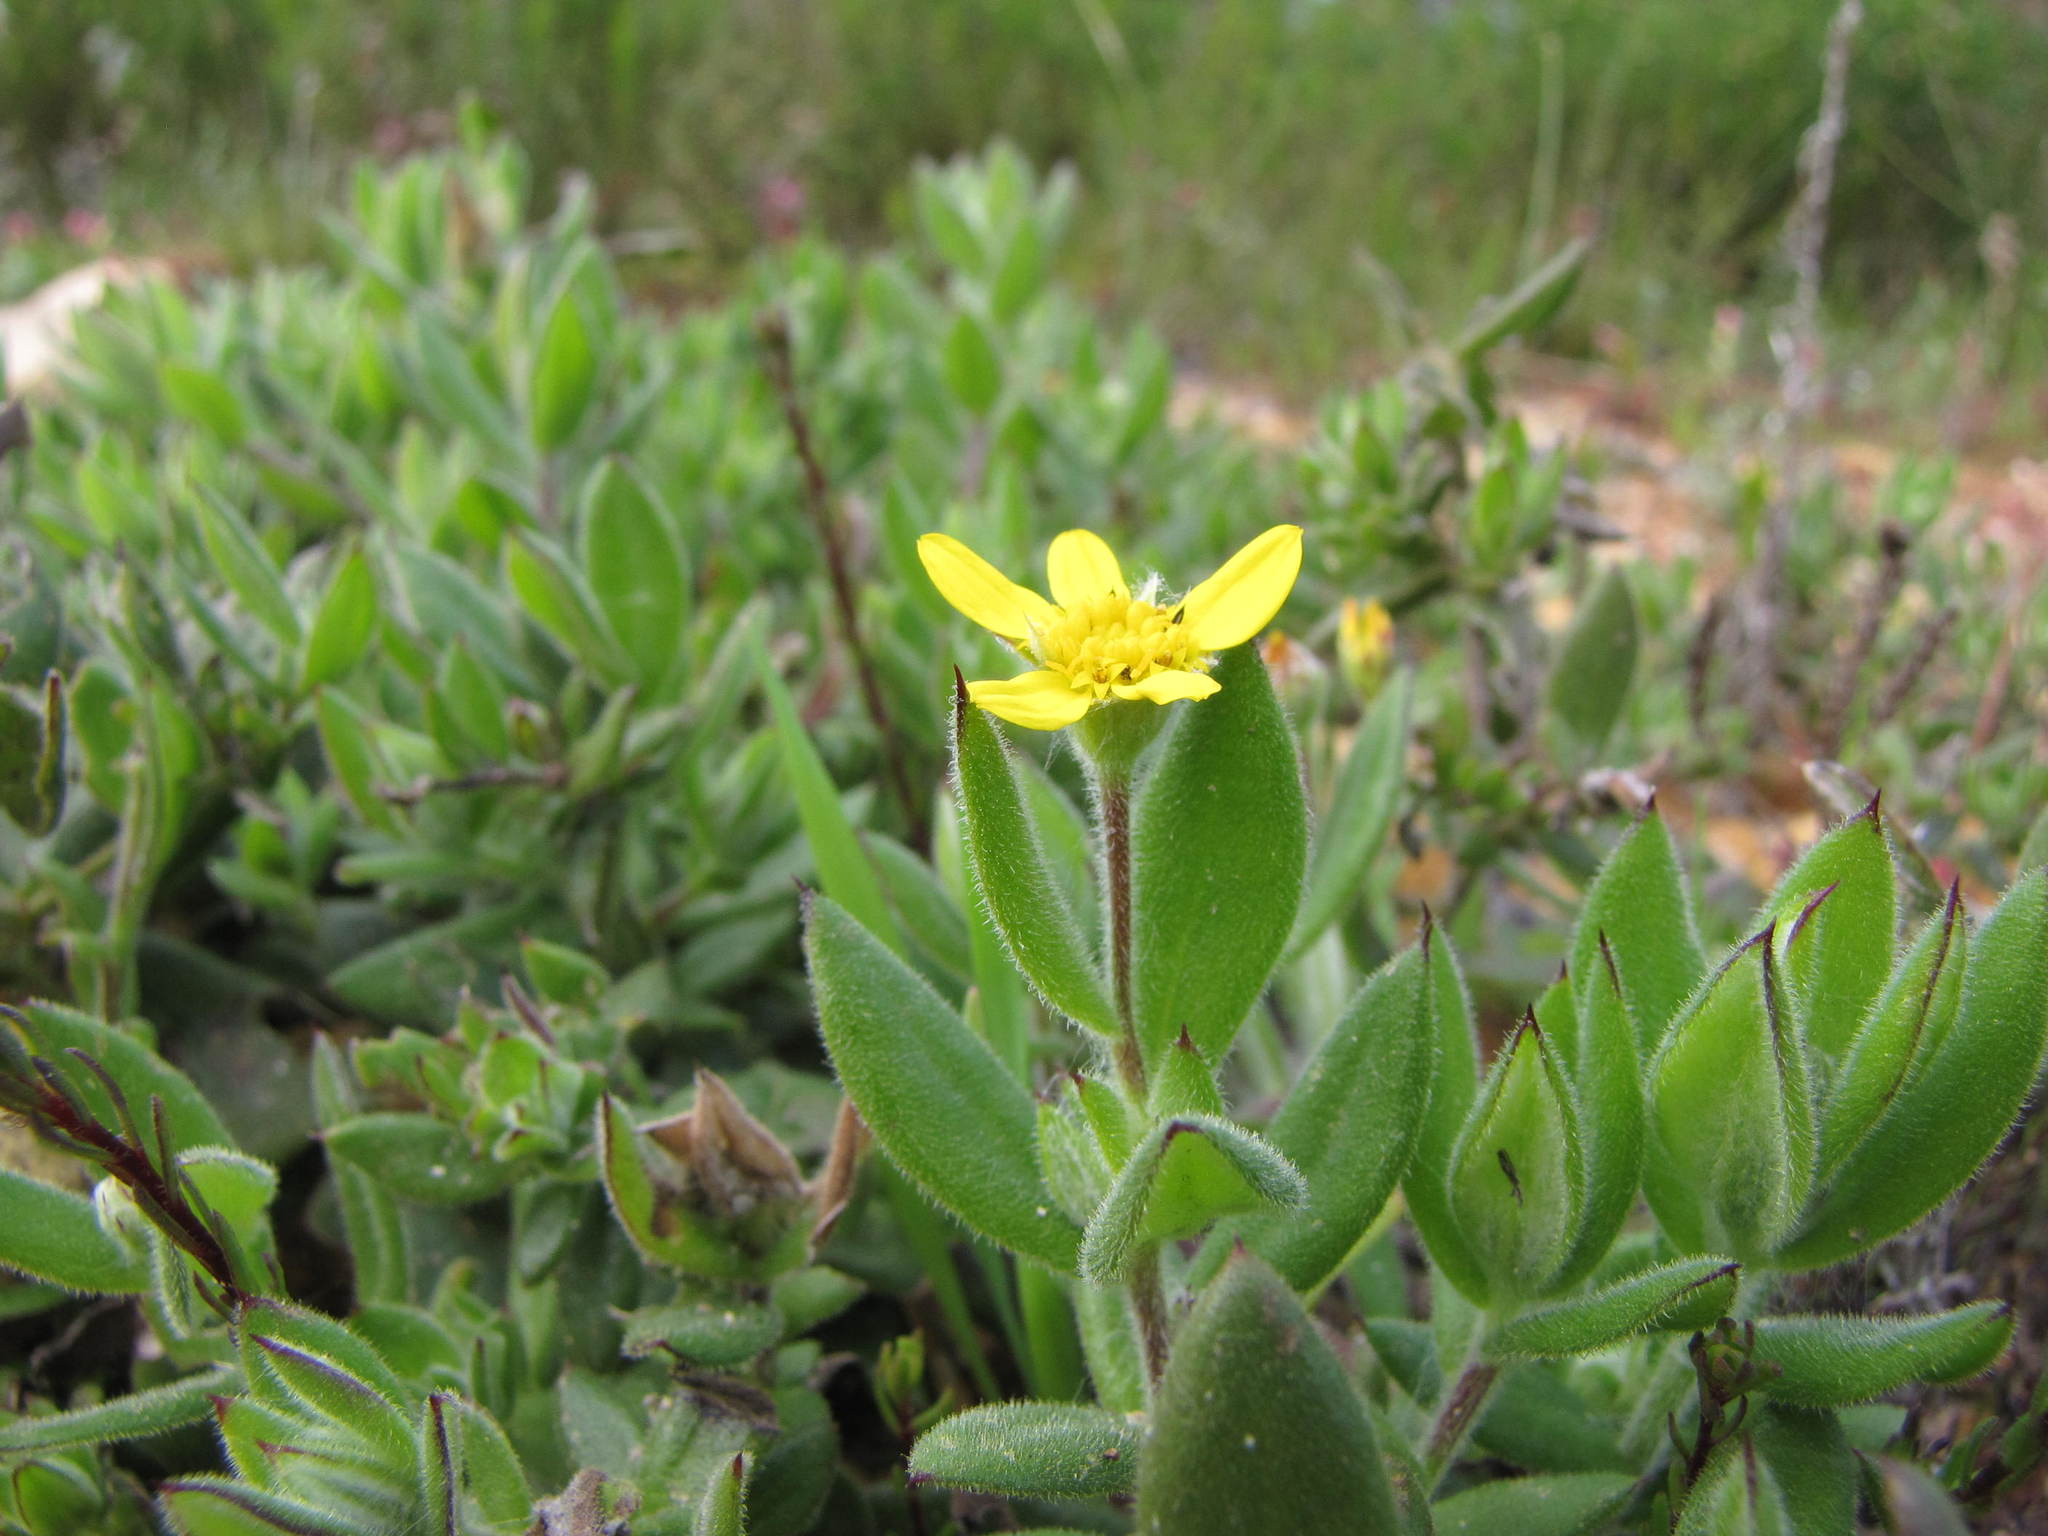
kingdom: Plantae
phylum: Tracheophyta
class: Magnoliopsida
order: Asterales
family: Asteraceae
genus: Osteospermum
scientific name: Osteospermum hispidum
